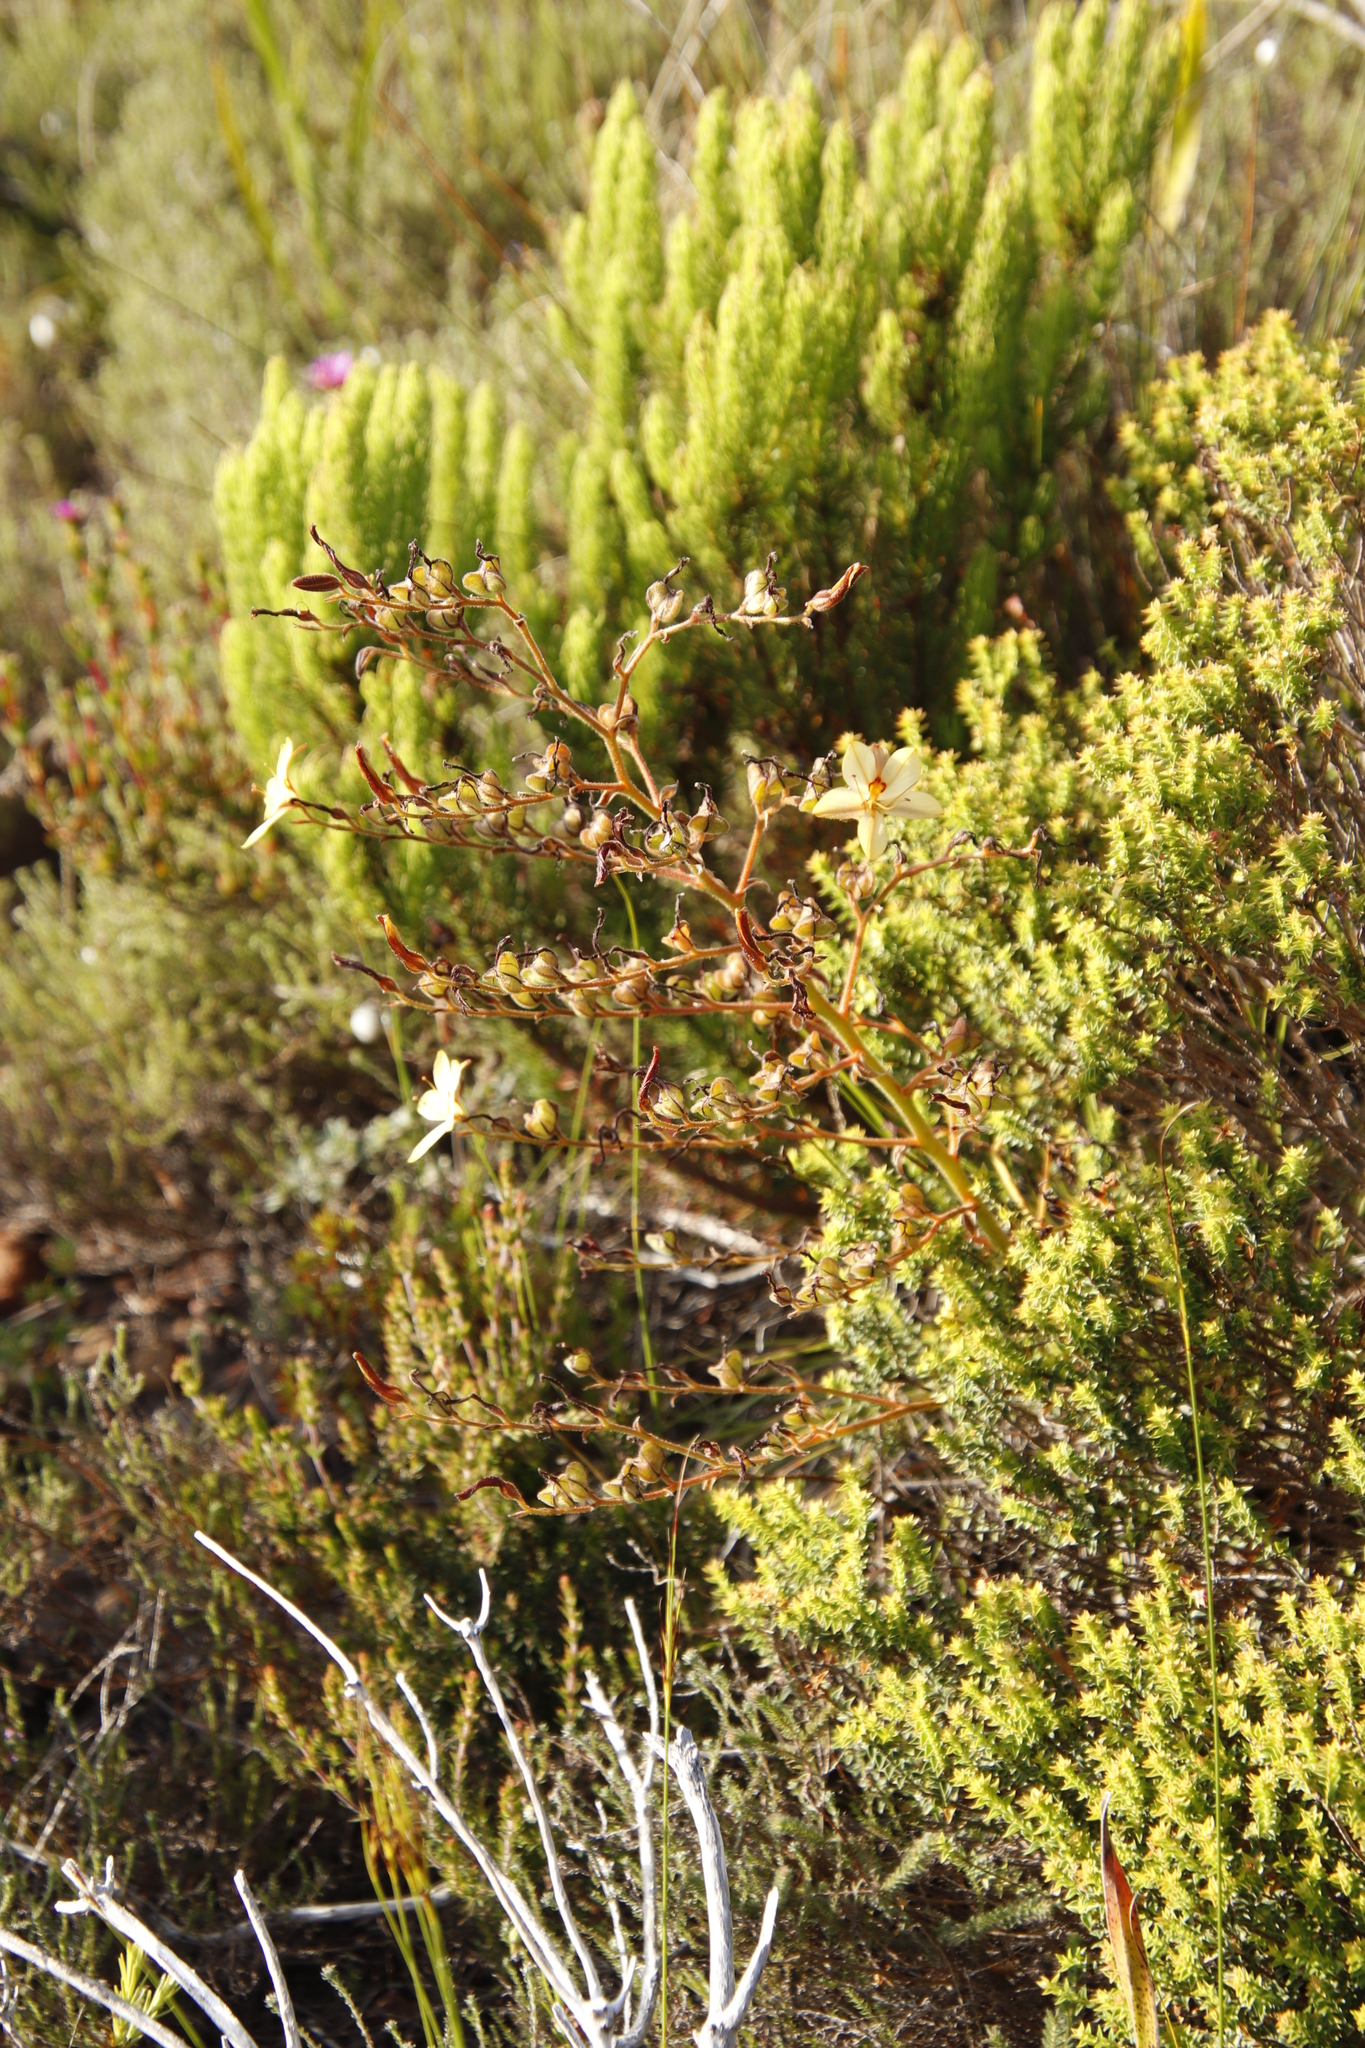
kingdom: Plantae
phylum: Tracheophyta
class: Liliopsida
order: Commelinales
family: Haemodoraceae
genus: Wachendorfia
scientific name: Wachendorfia paniculata
